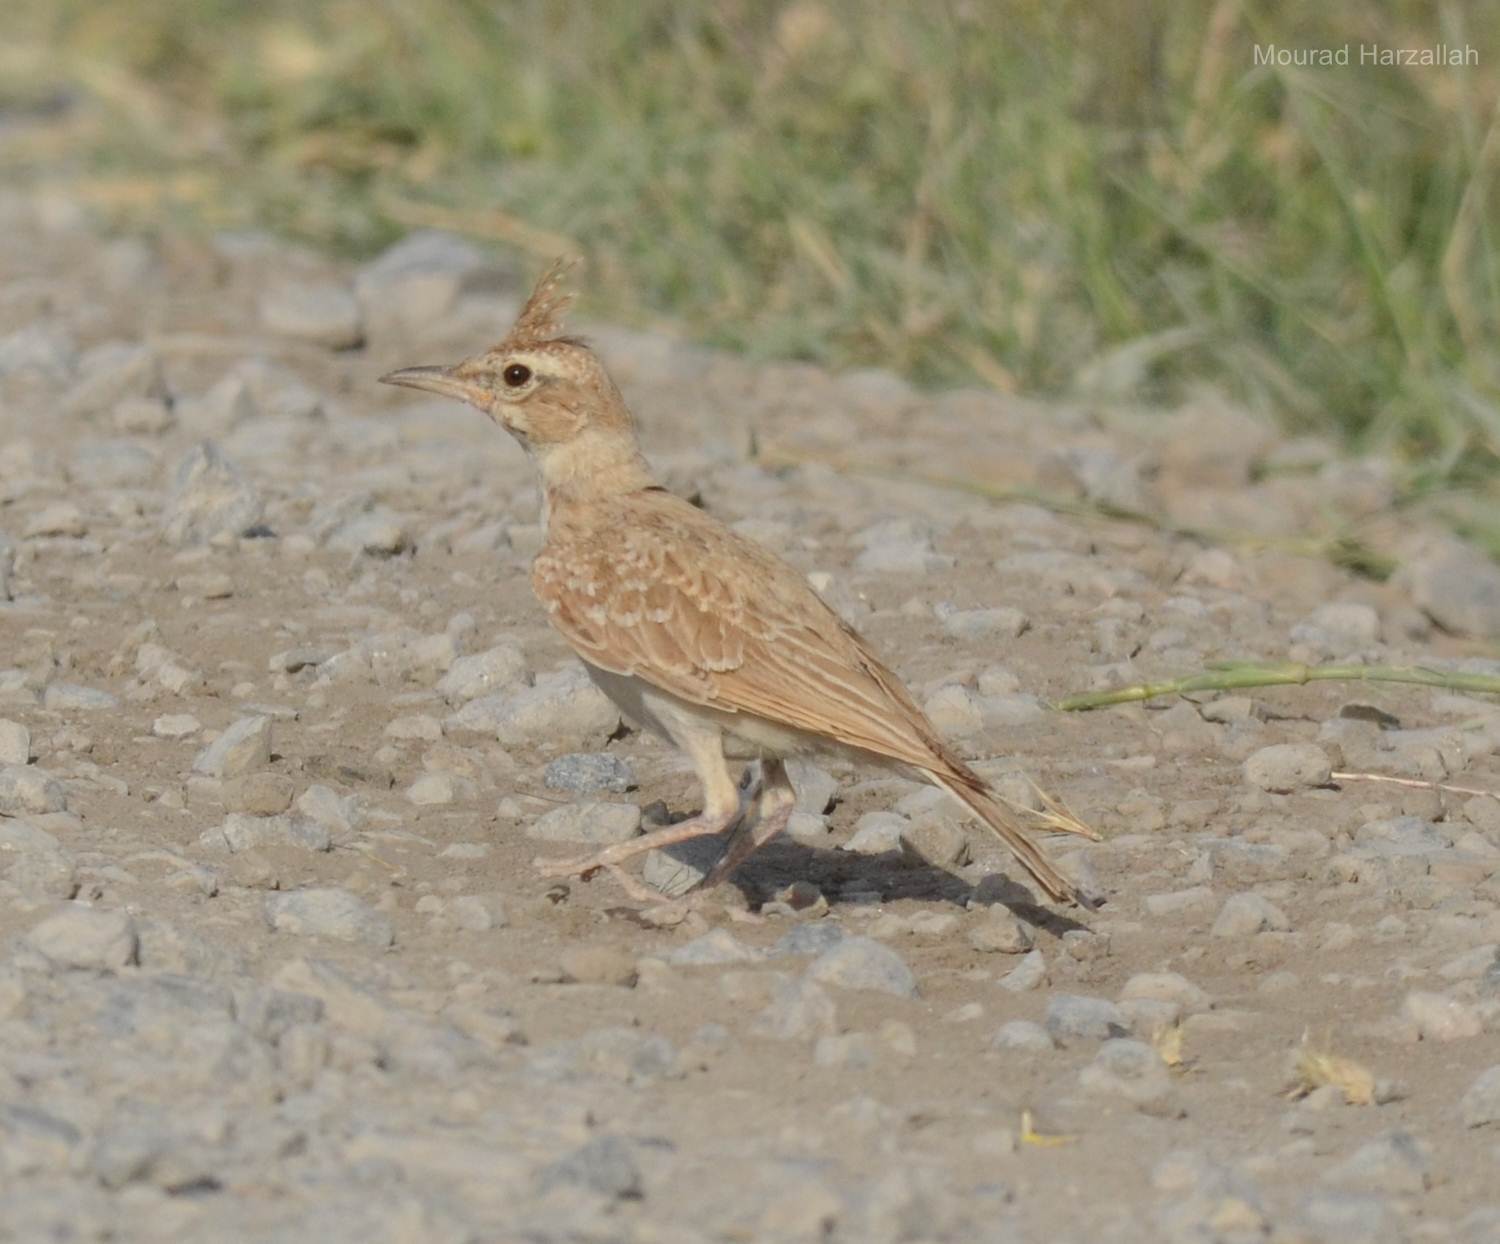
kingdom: Animalia
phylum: Chordata
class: Aves
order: Passeriformes
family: Alaudidae
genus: Galerida
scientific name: Galerida cristata
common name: Crested lark
